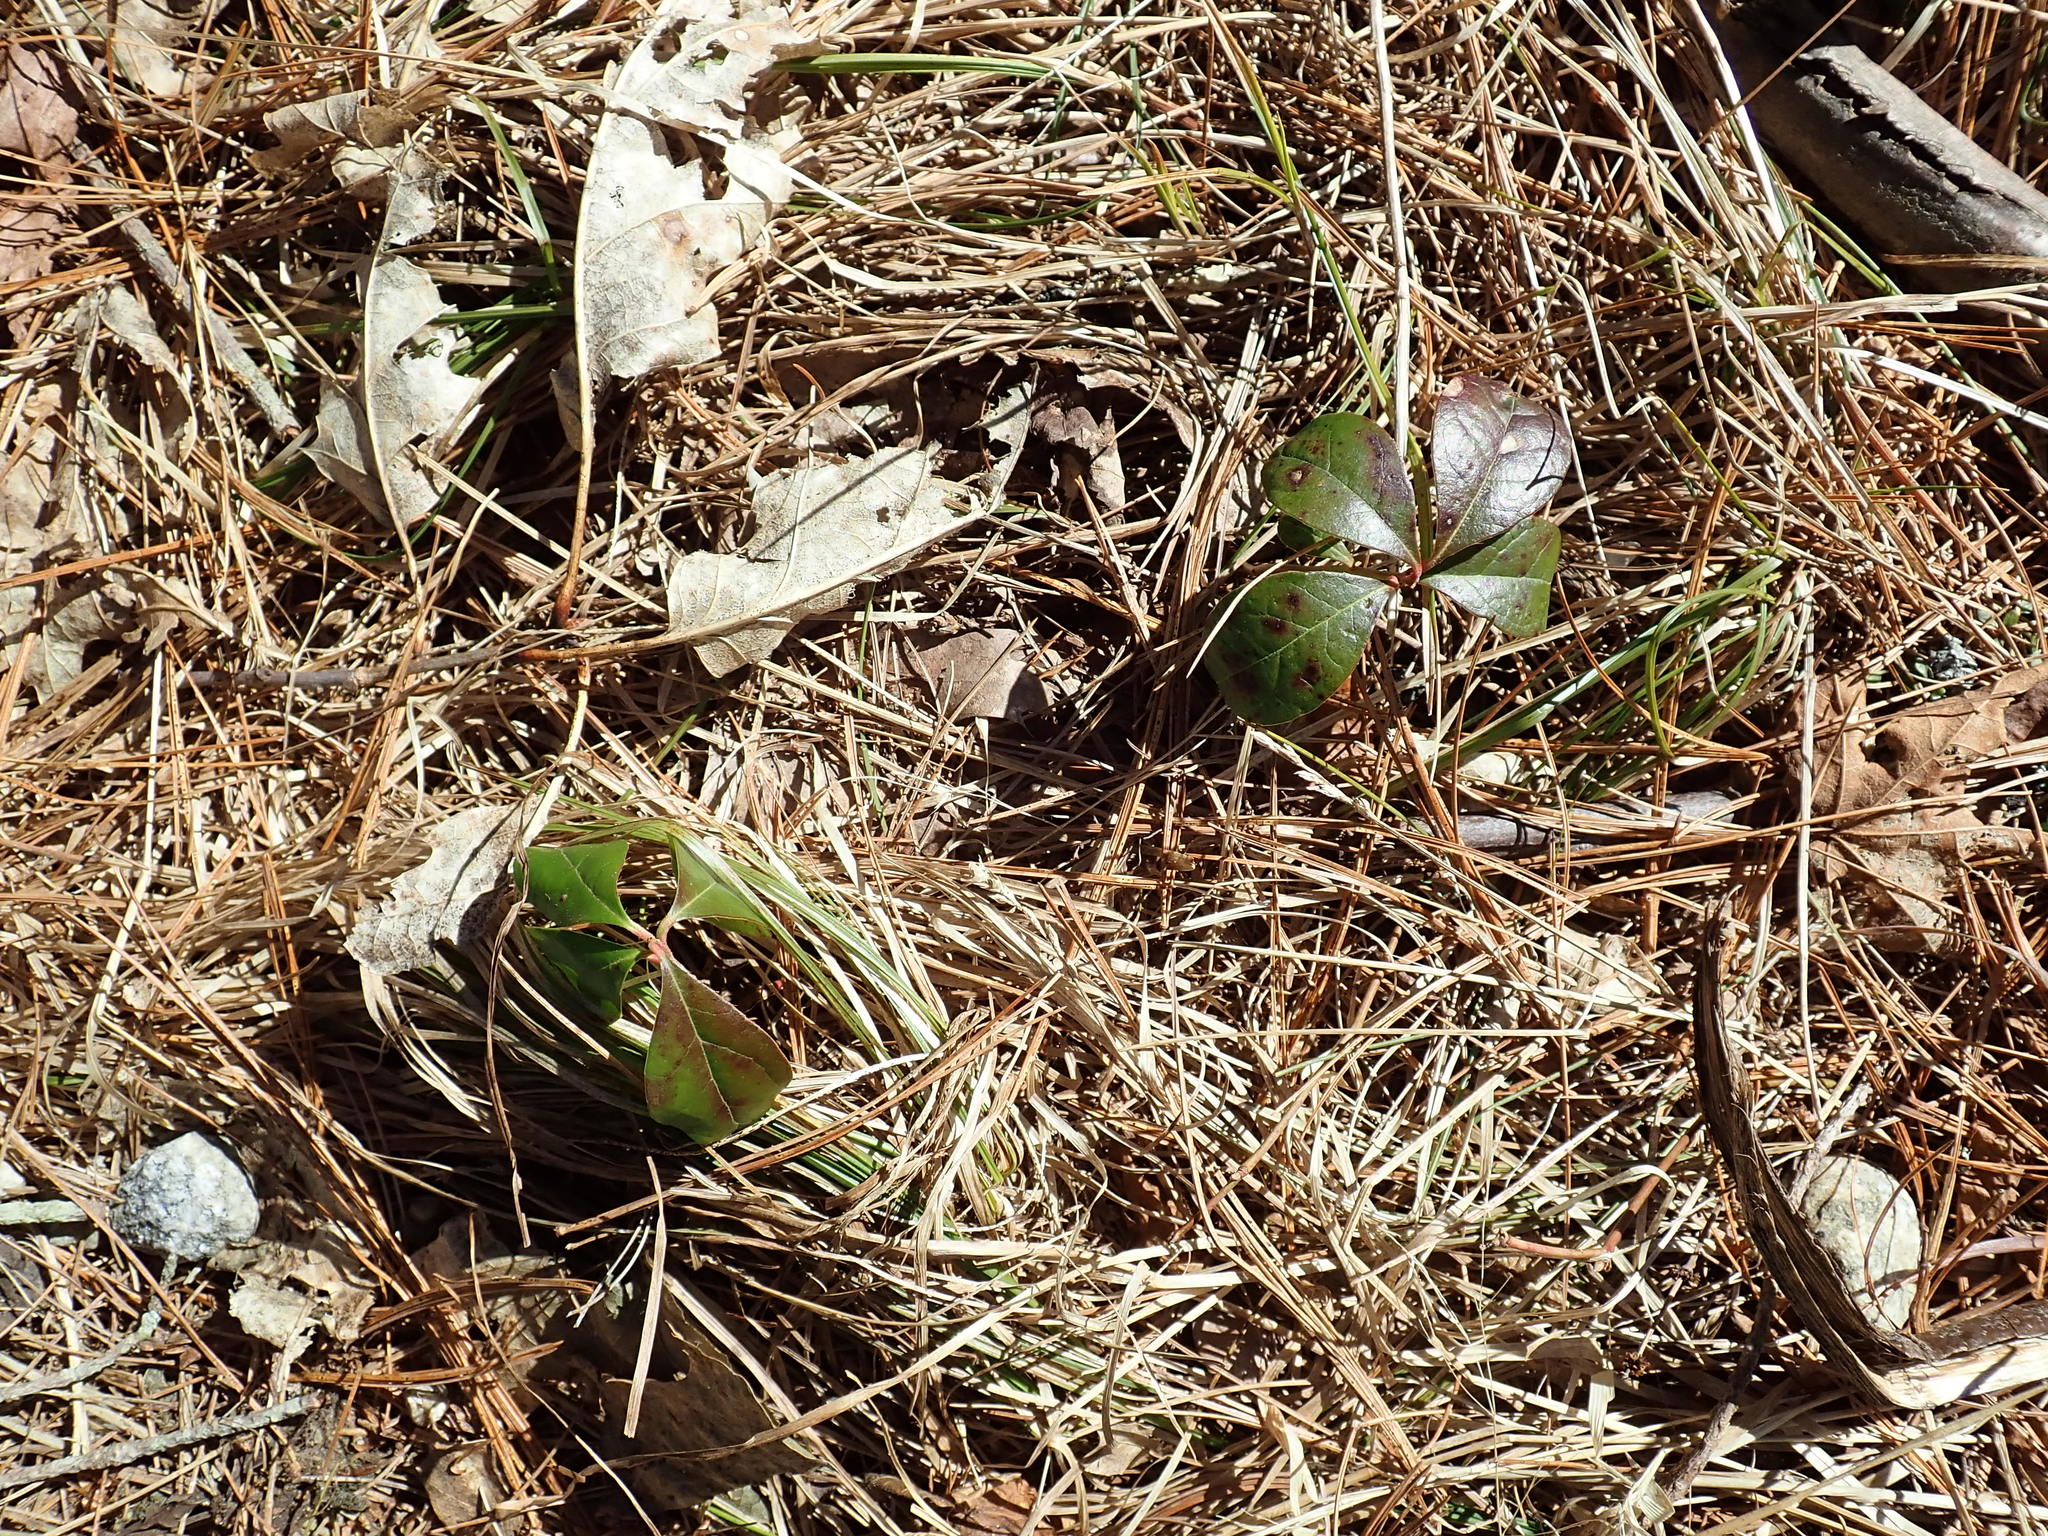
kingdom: Plantae
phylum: Tracheophyta
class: Magnoliopsida
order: Ericales
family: Ericaceae
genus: Gaultheria
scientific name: Gaultheria procumbens
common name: Checkerberry
